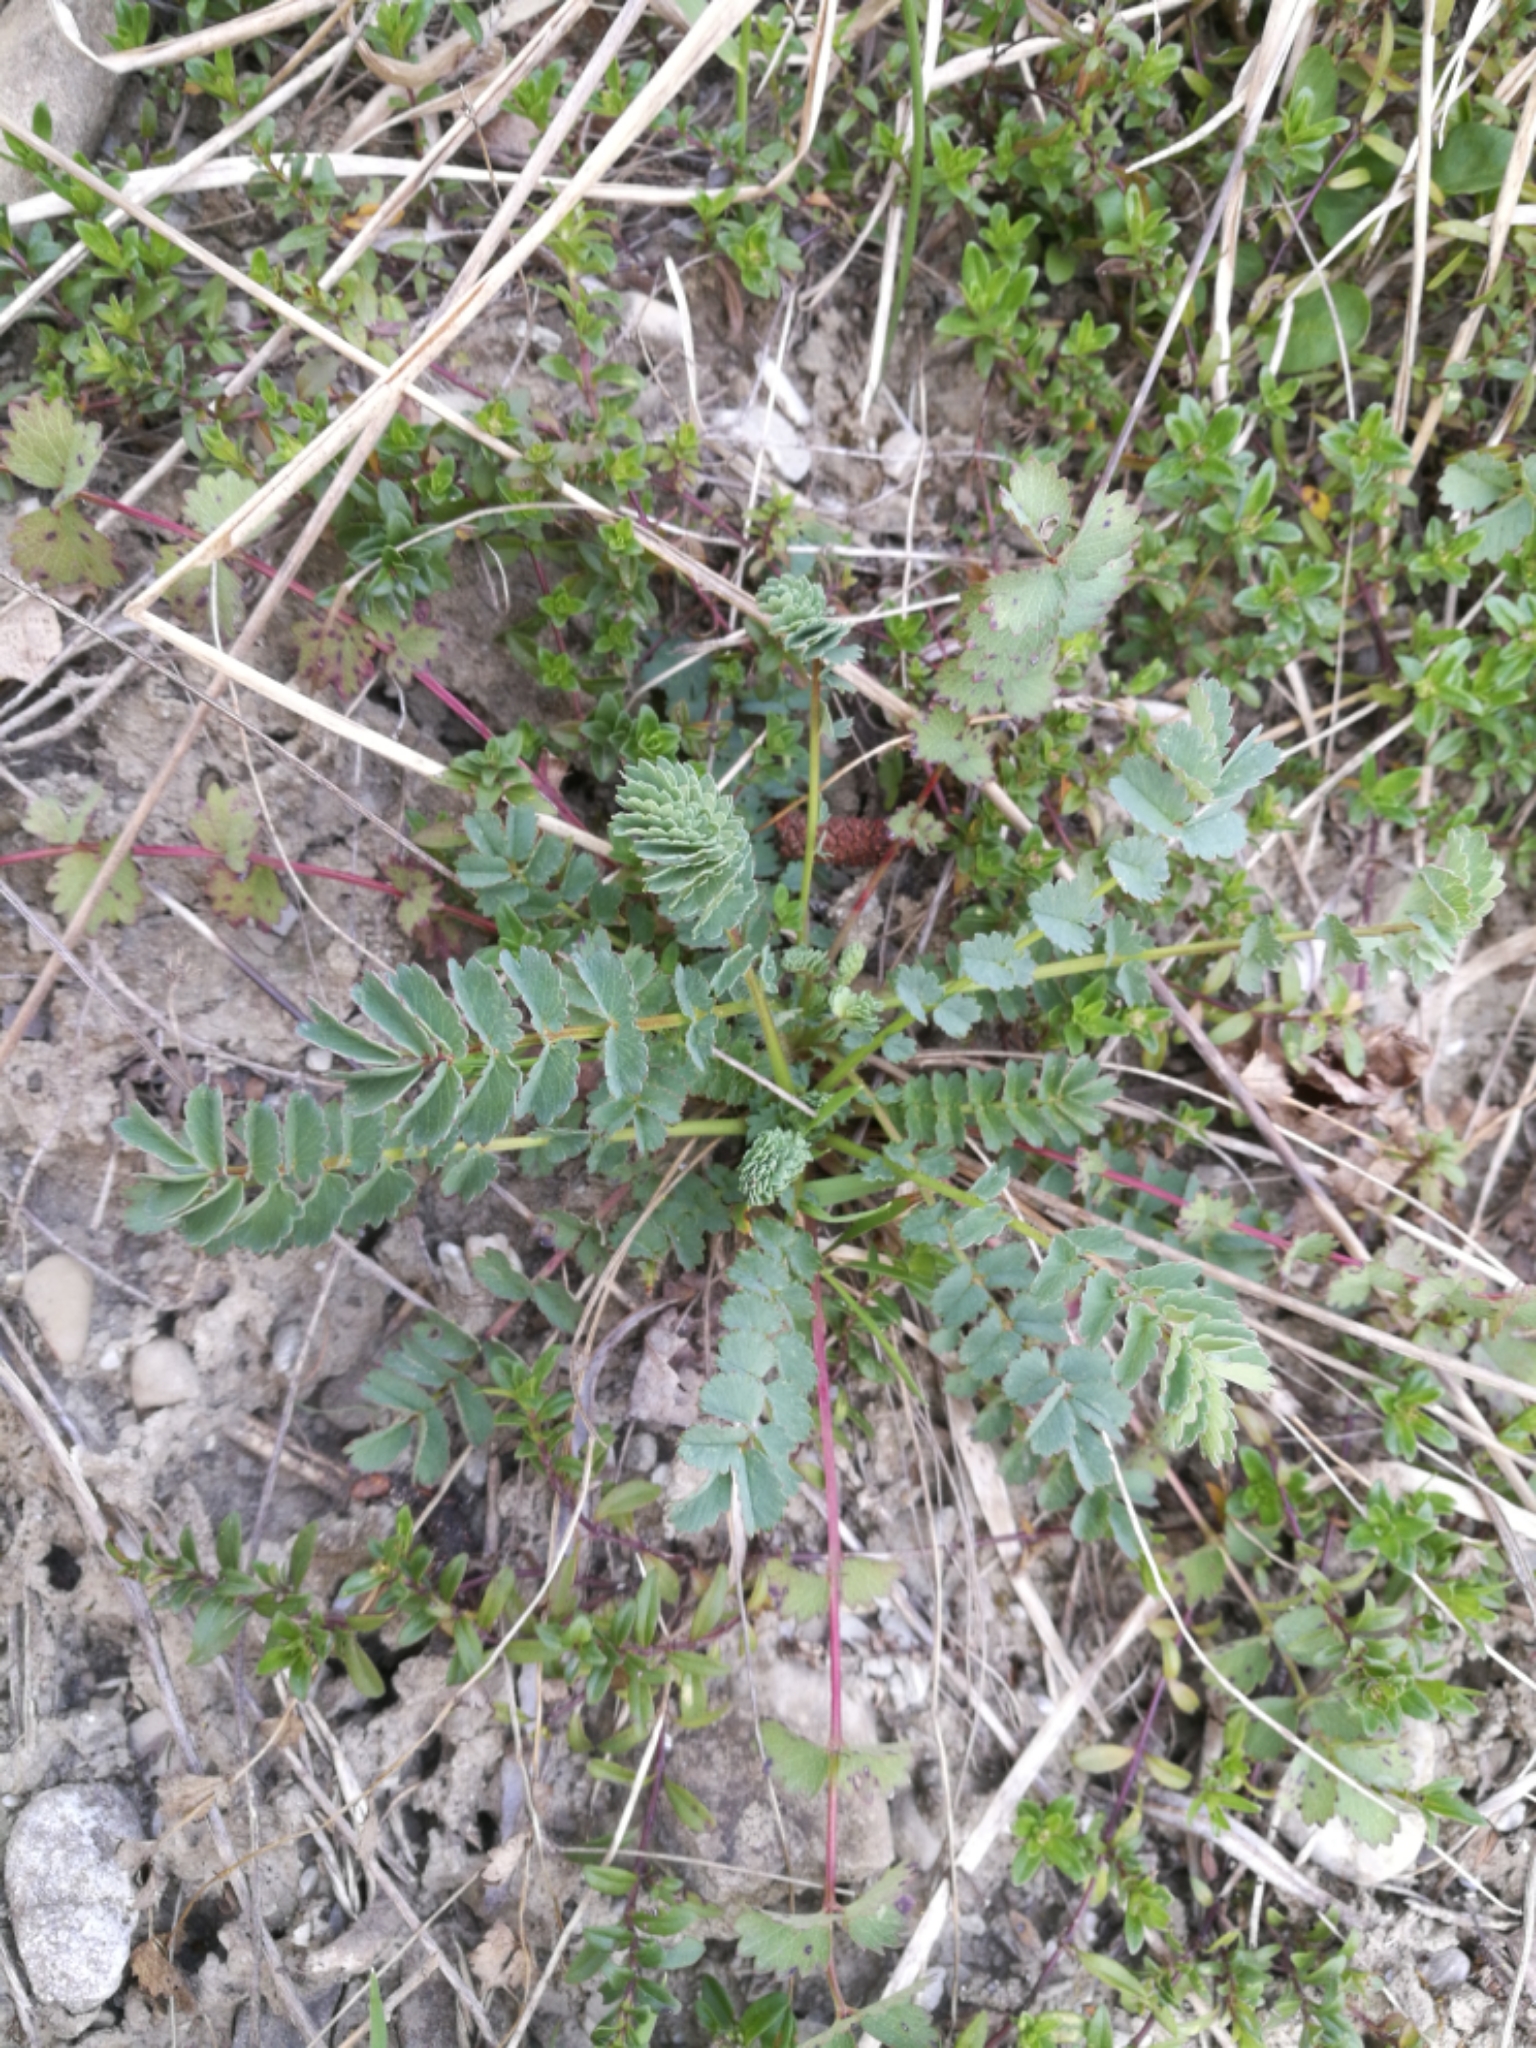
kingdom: Plantae
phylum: Tracheophyta
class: Magnoliopsida
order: Rosales
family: Rosaceae
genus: Poterium
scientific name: Poterium sanguisorba
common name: Salad burnet
